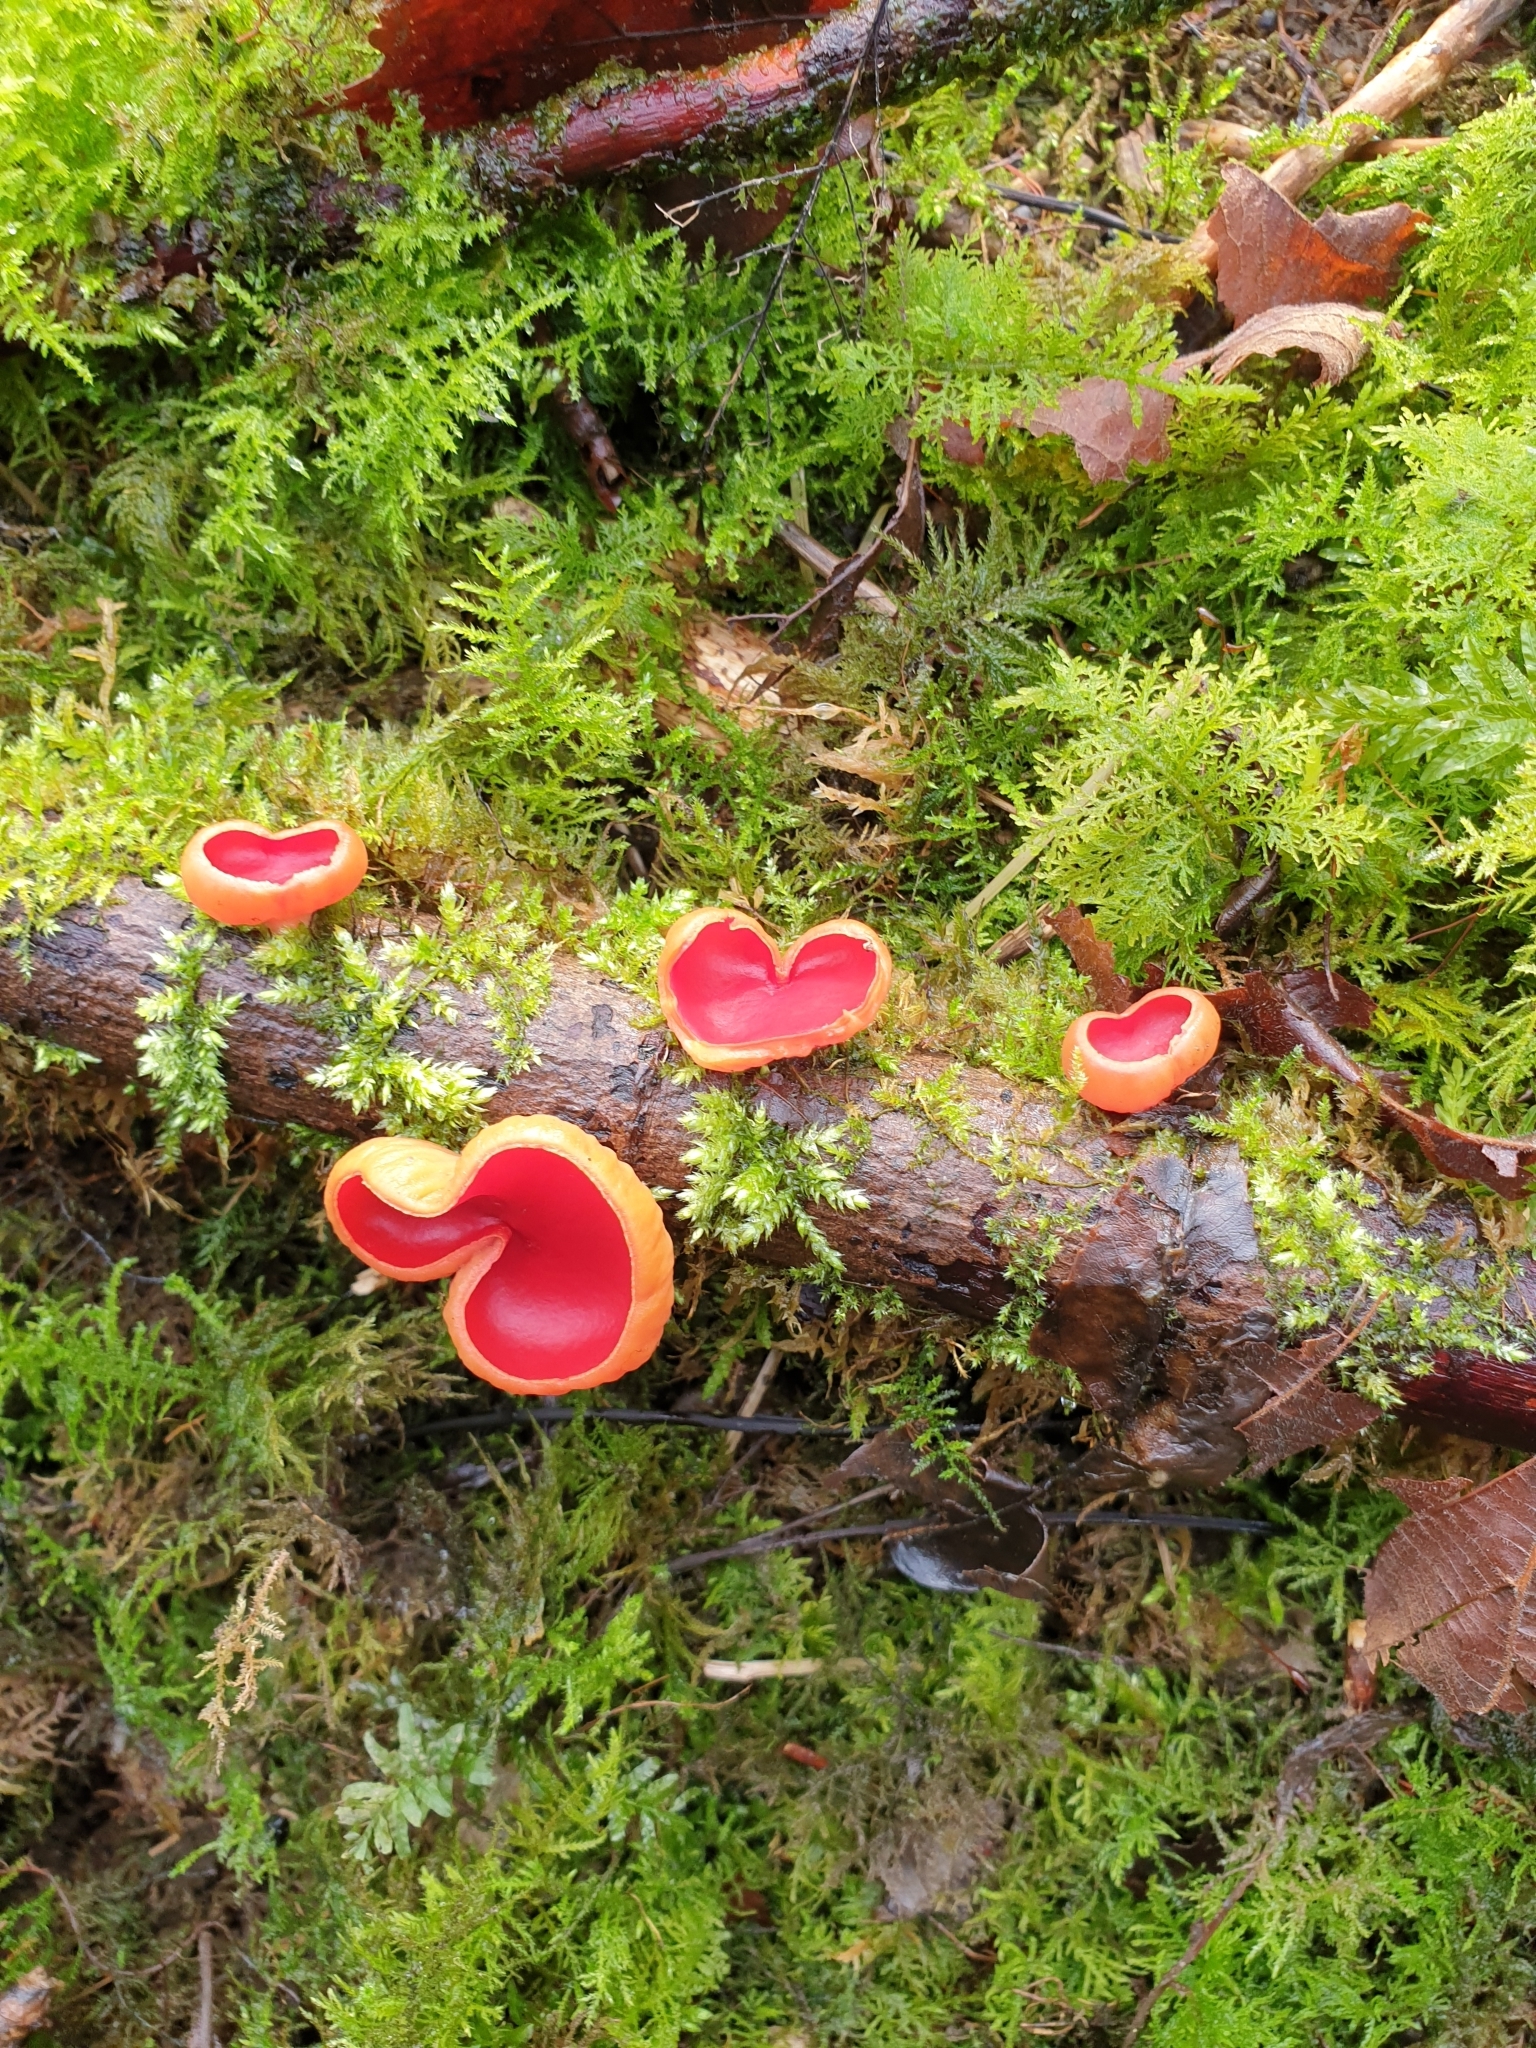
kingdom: Fungi
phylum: Ascomycota
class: Pezizomycetes
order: Pezizales
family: Sarcoscyphaceae
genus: Sarcoscypha
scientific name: Sarcoscypha
